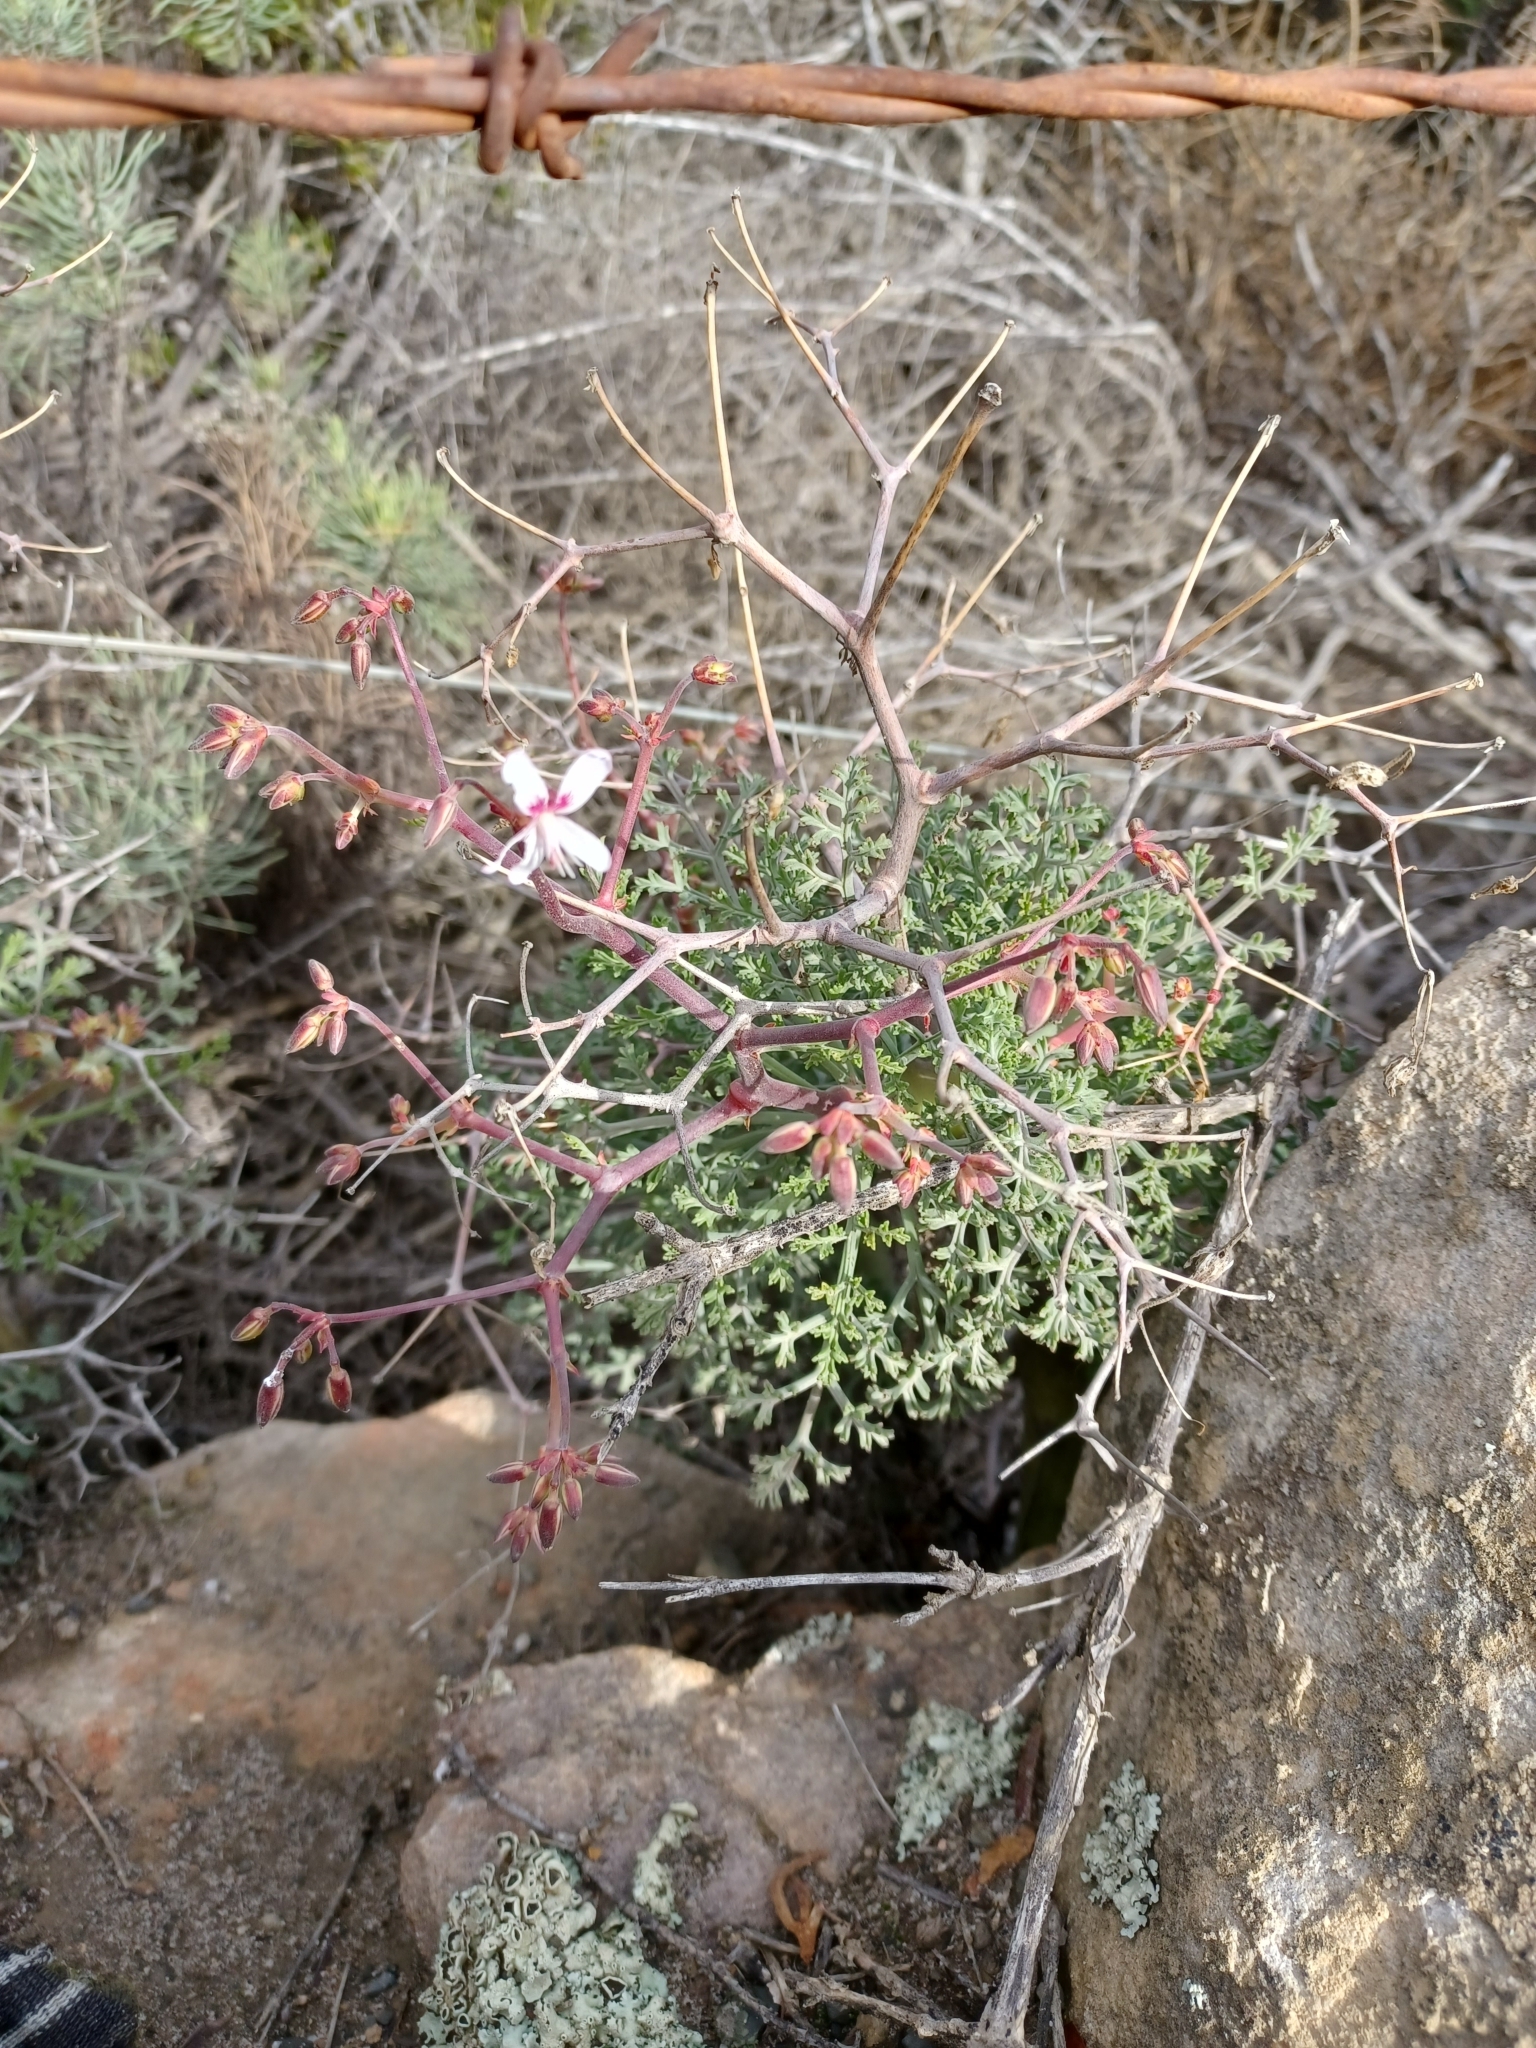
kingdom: Plantae
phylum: Tracheophyta
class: Magnoliopsida
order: Geraniales
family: Geraniaceae
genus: Pelargonium
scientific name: Pelargonium crithmifolium
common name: Samphire-leaf pelargonium
